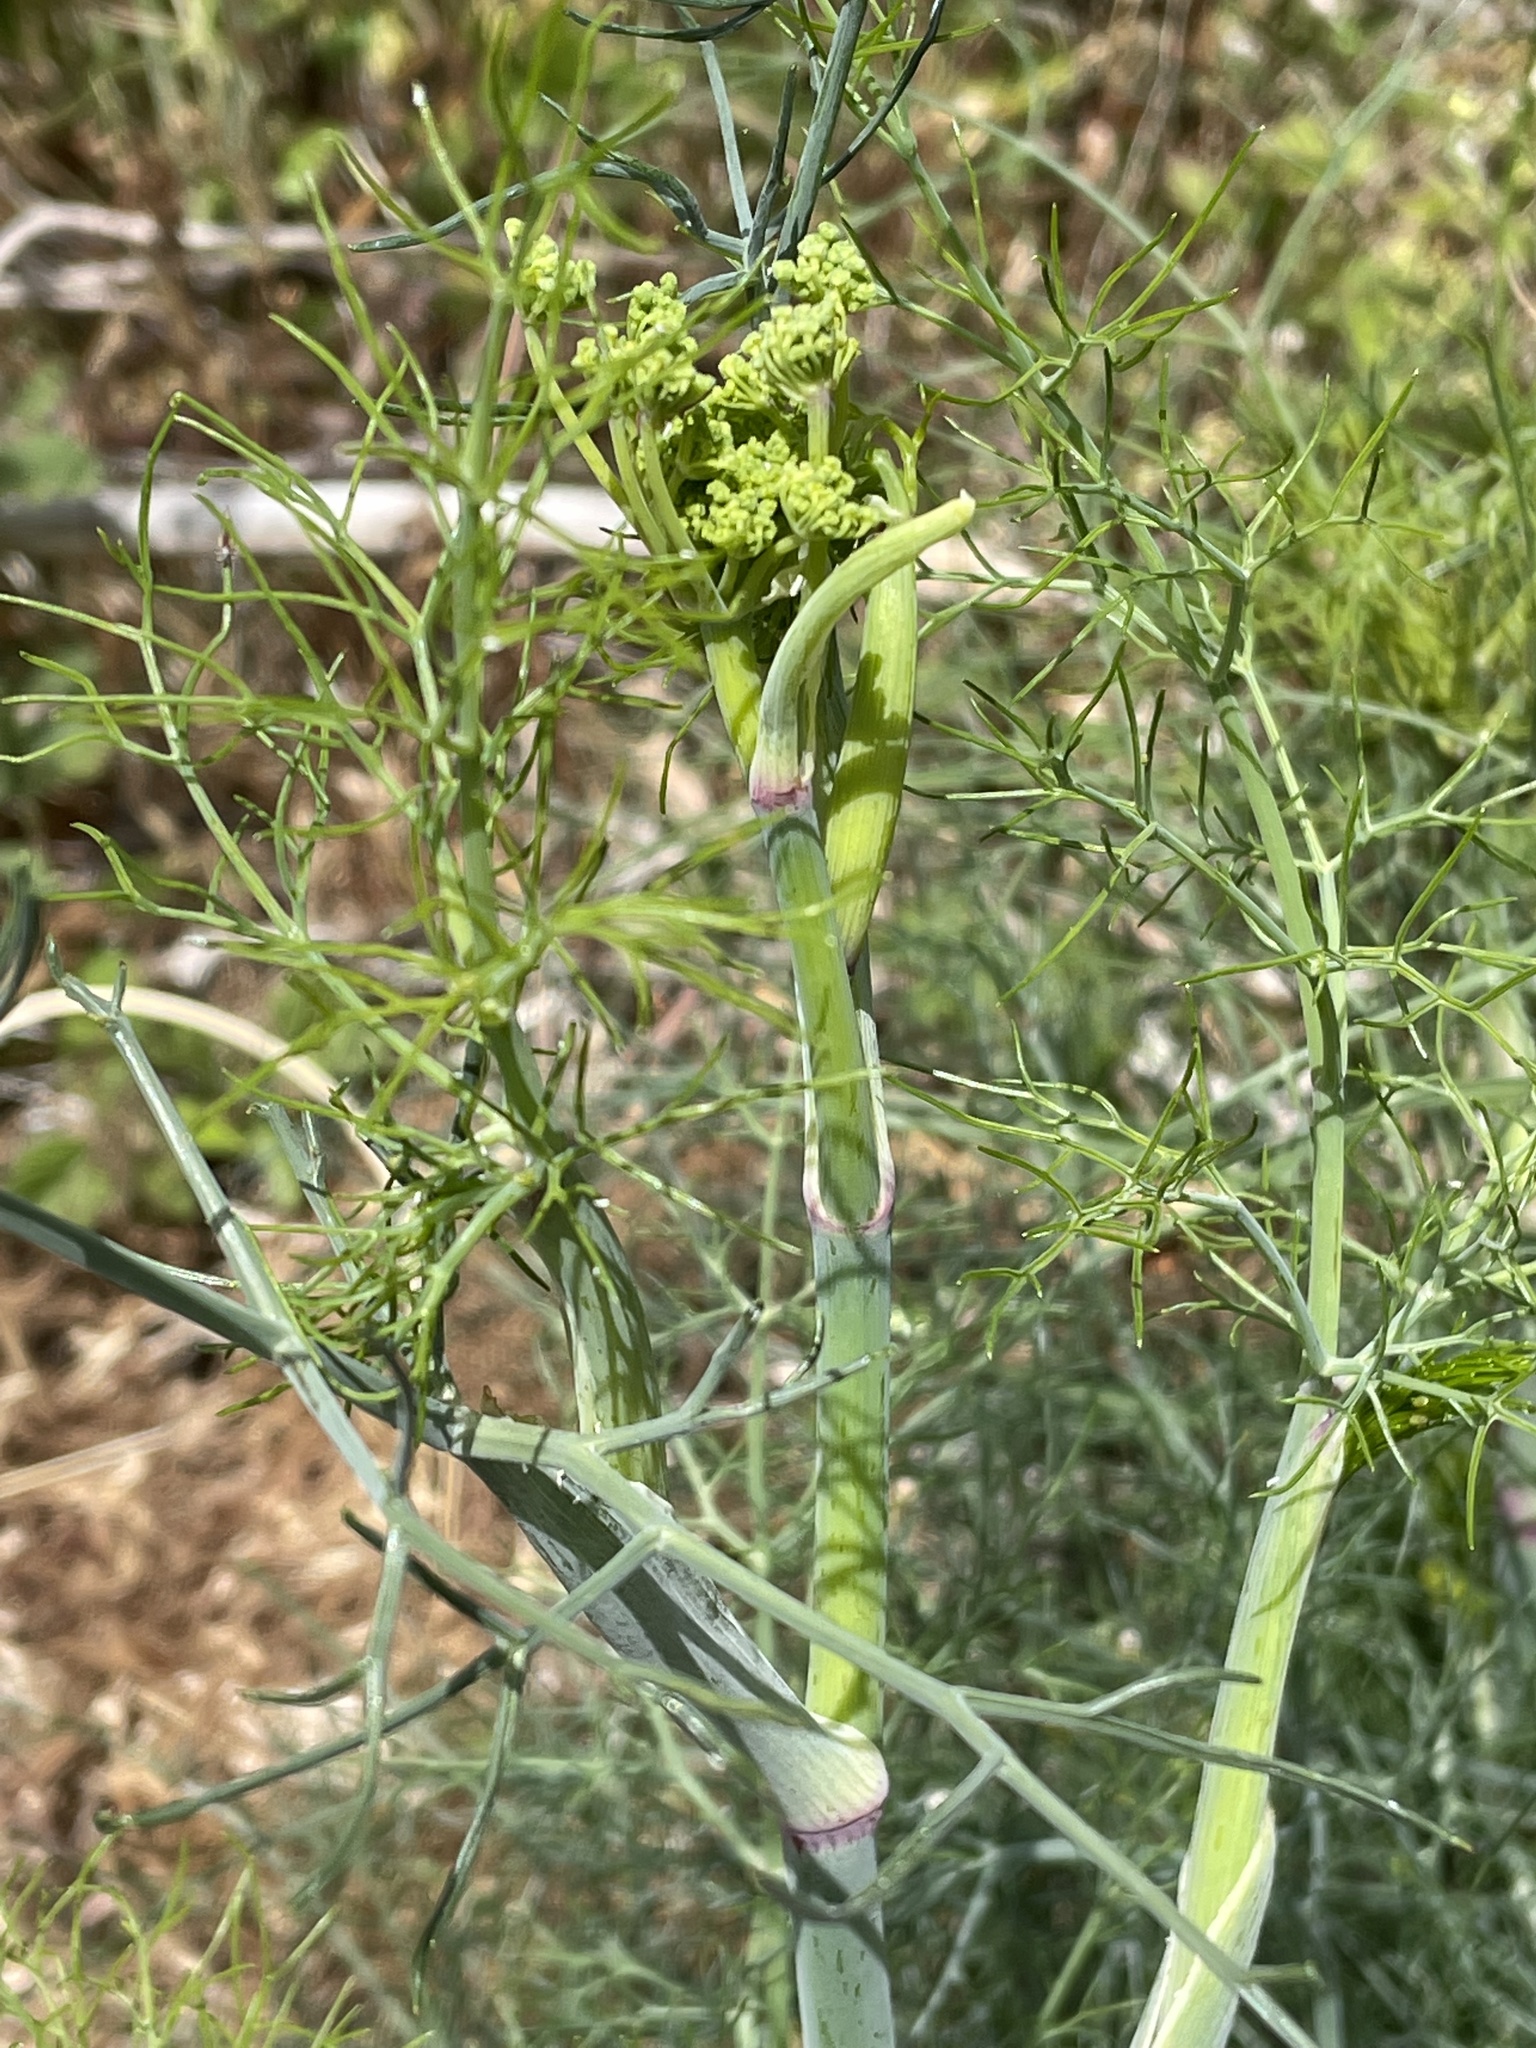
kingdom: Plantae
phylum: Tracheophyta
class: Magnoliopsida
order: Apiales
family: Apiaceae
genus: Foeniculum
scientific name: Foeniculum vulgare
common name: Fennel
